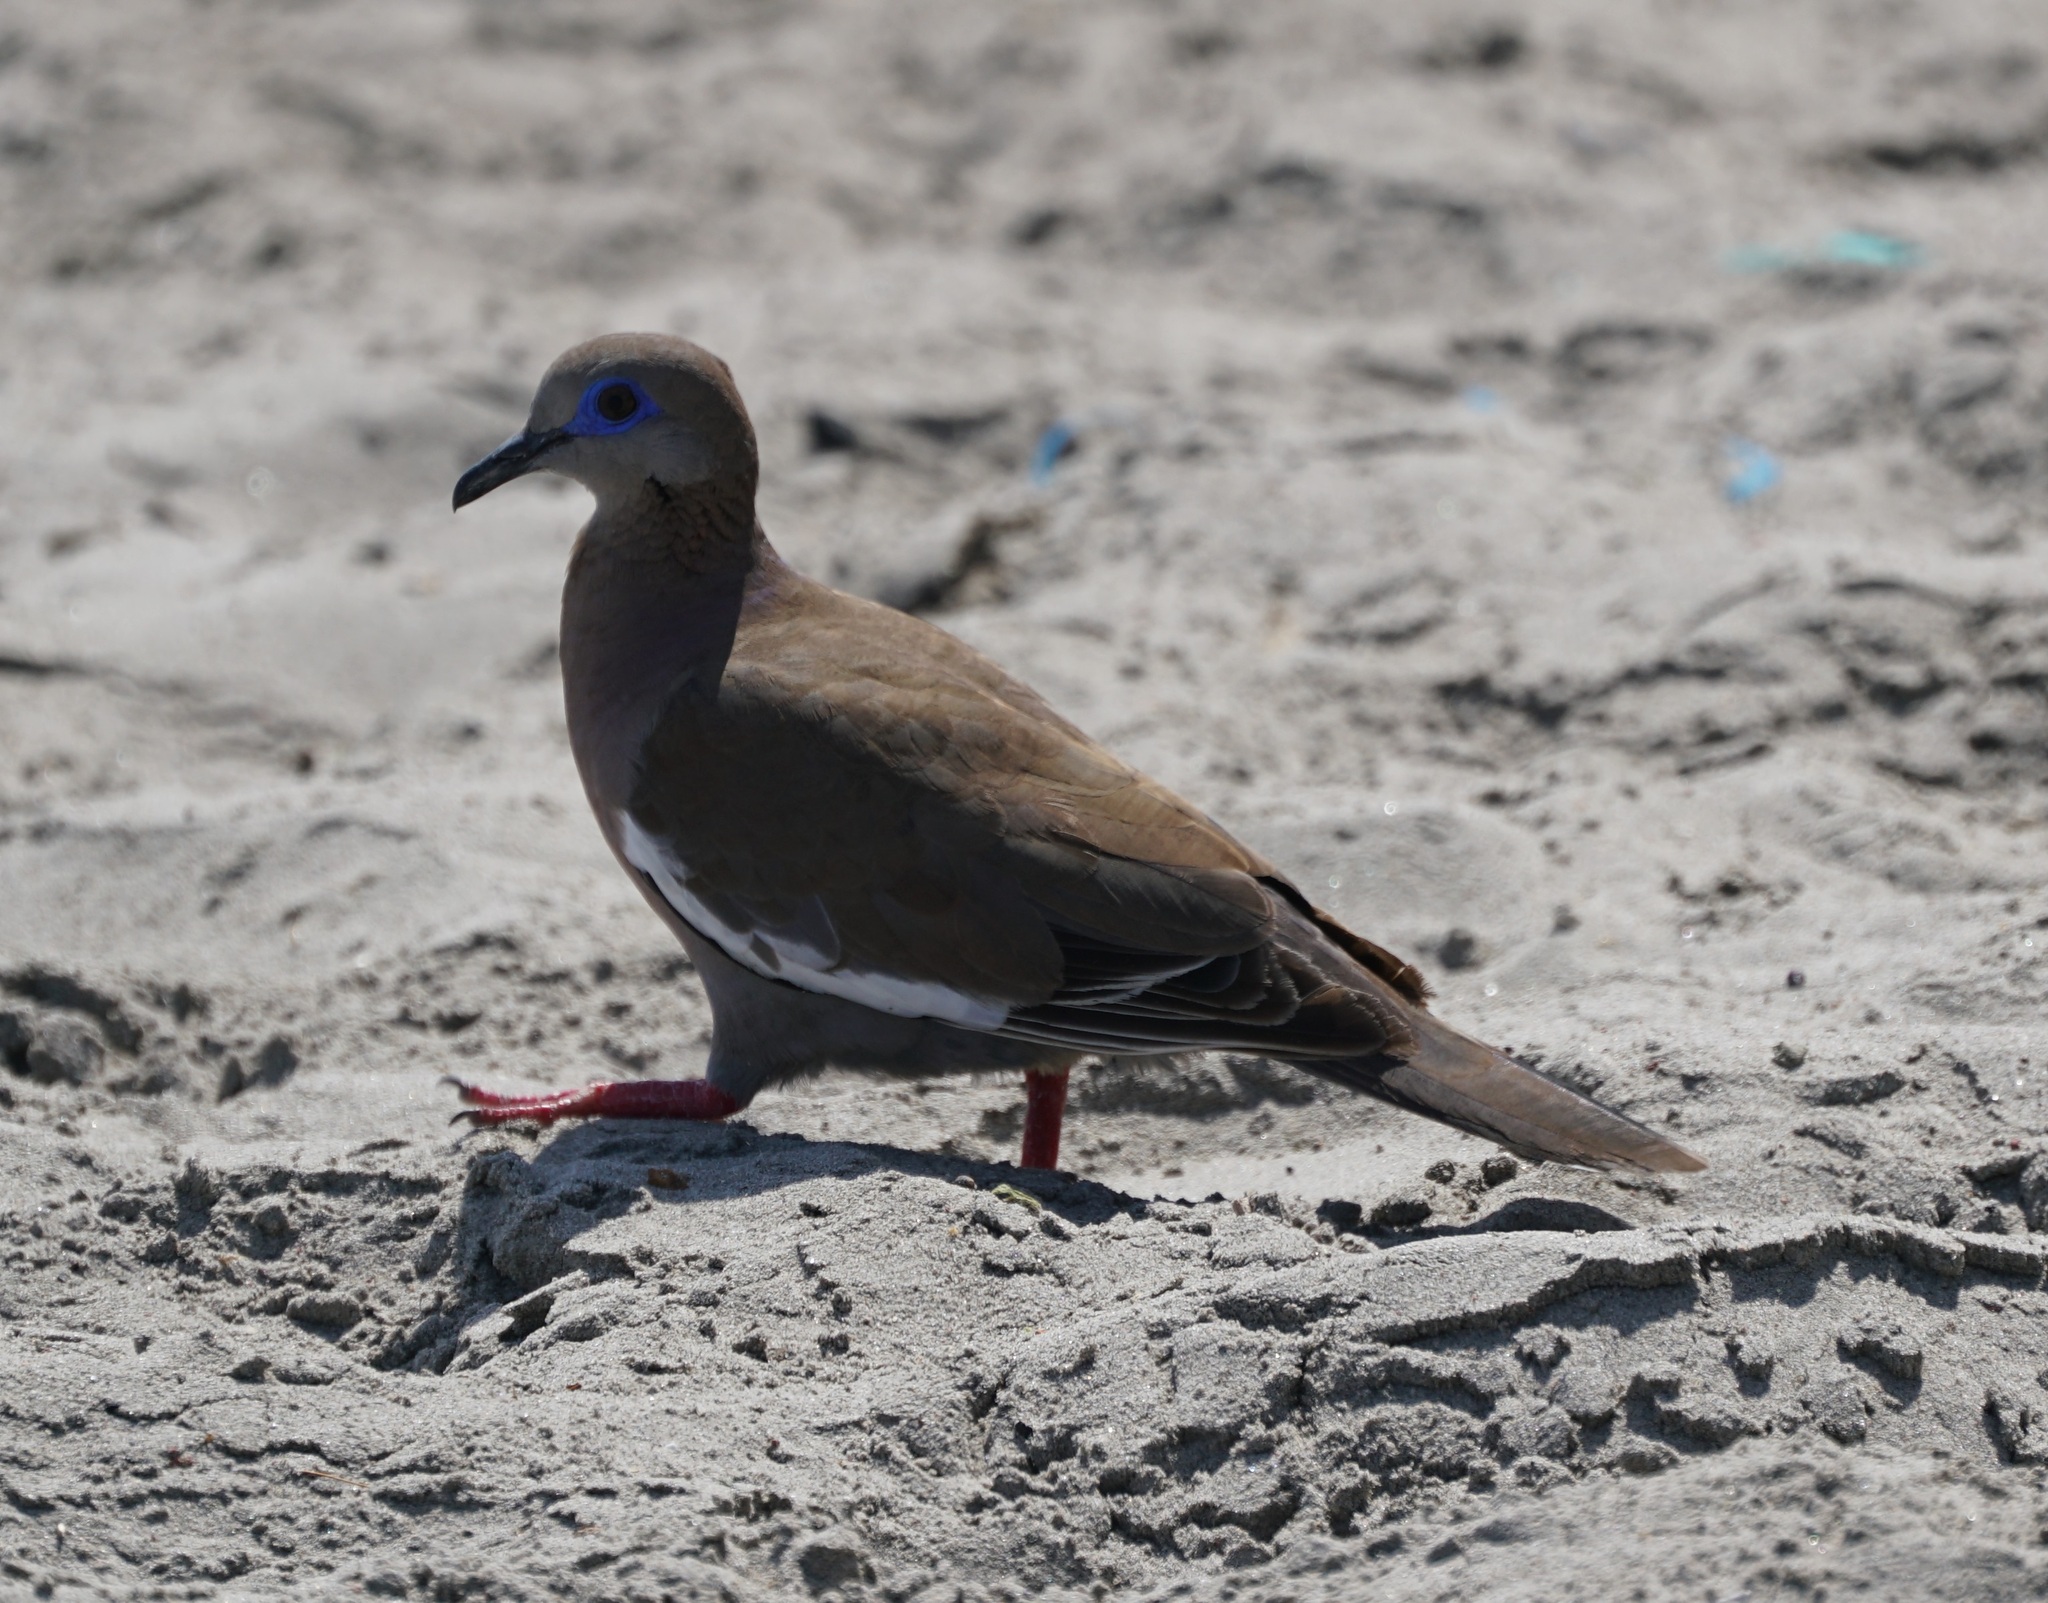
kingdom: Animalia
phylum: Chordata
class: Aves
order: Columbiformes
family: Columbidae
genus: Zenaida
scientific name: Zenaida meloda
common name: West peruvian dove
